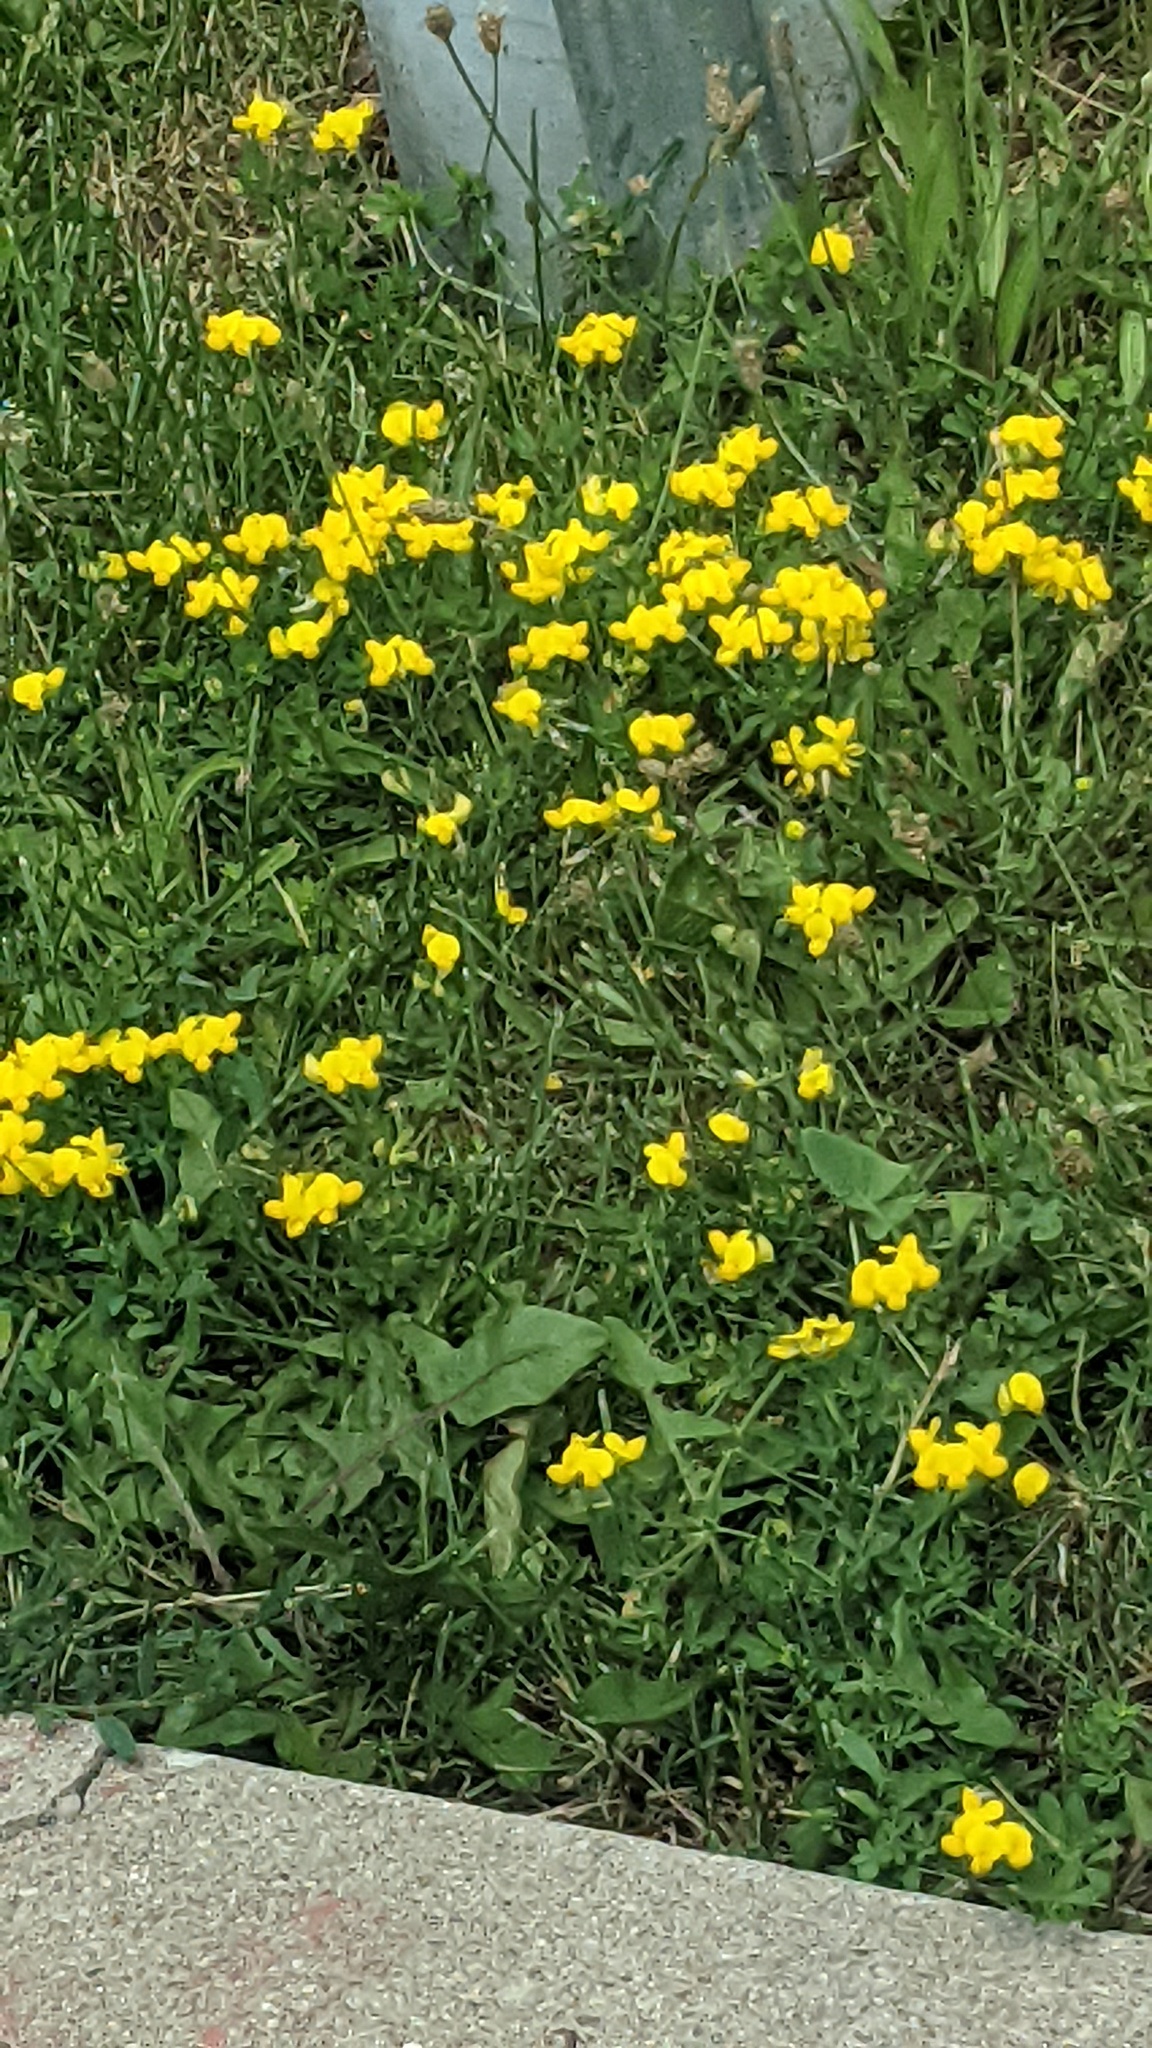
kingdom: Plantae
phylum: Tracheophyta
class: Magnoliopsida
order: Fabales
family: Fabaceae
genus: Lotus
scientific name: Lotus corniculatus
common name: Common bird's-foot-trefoil
